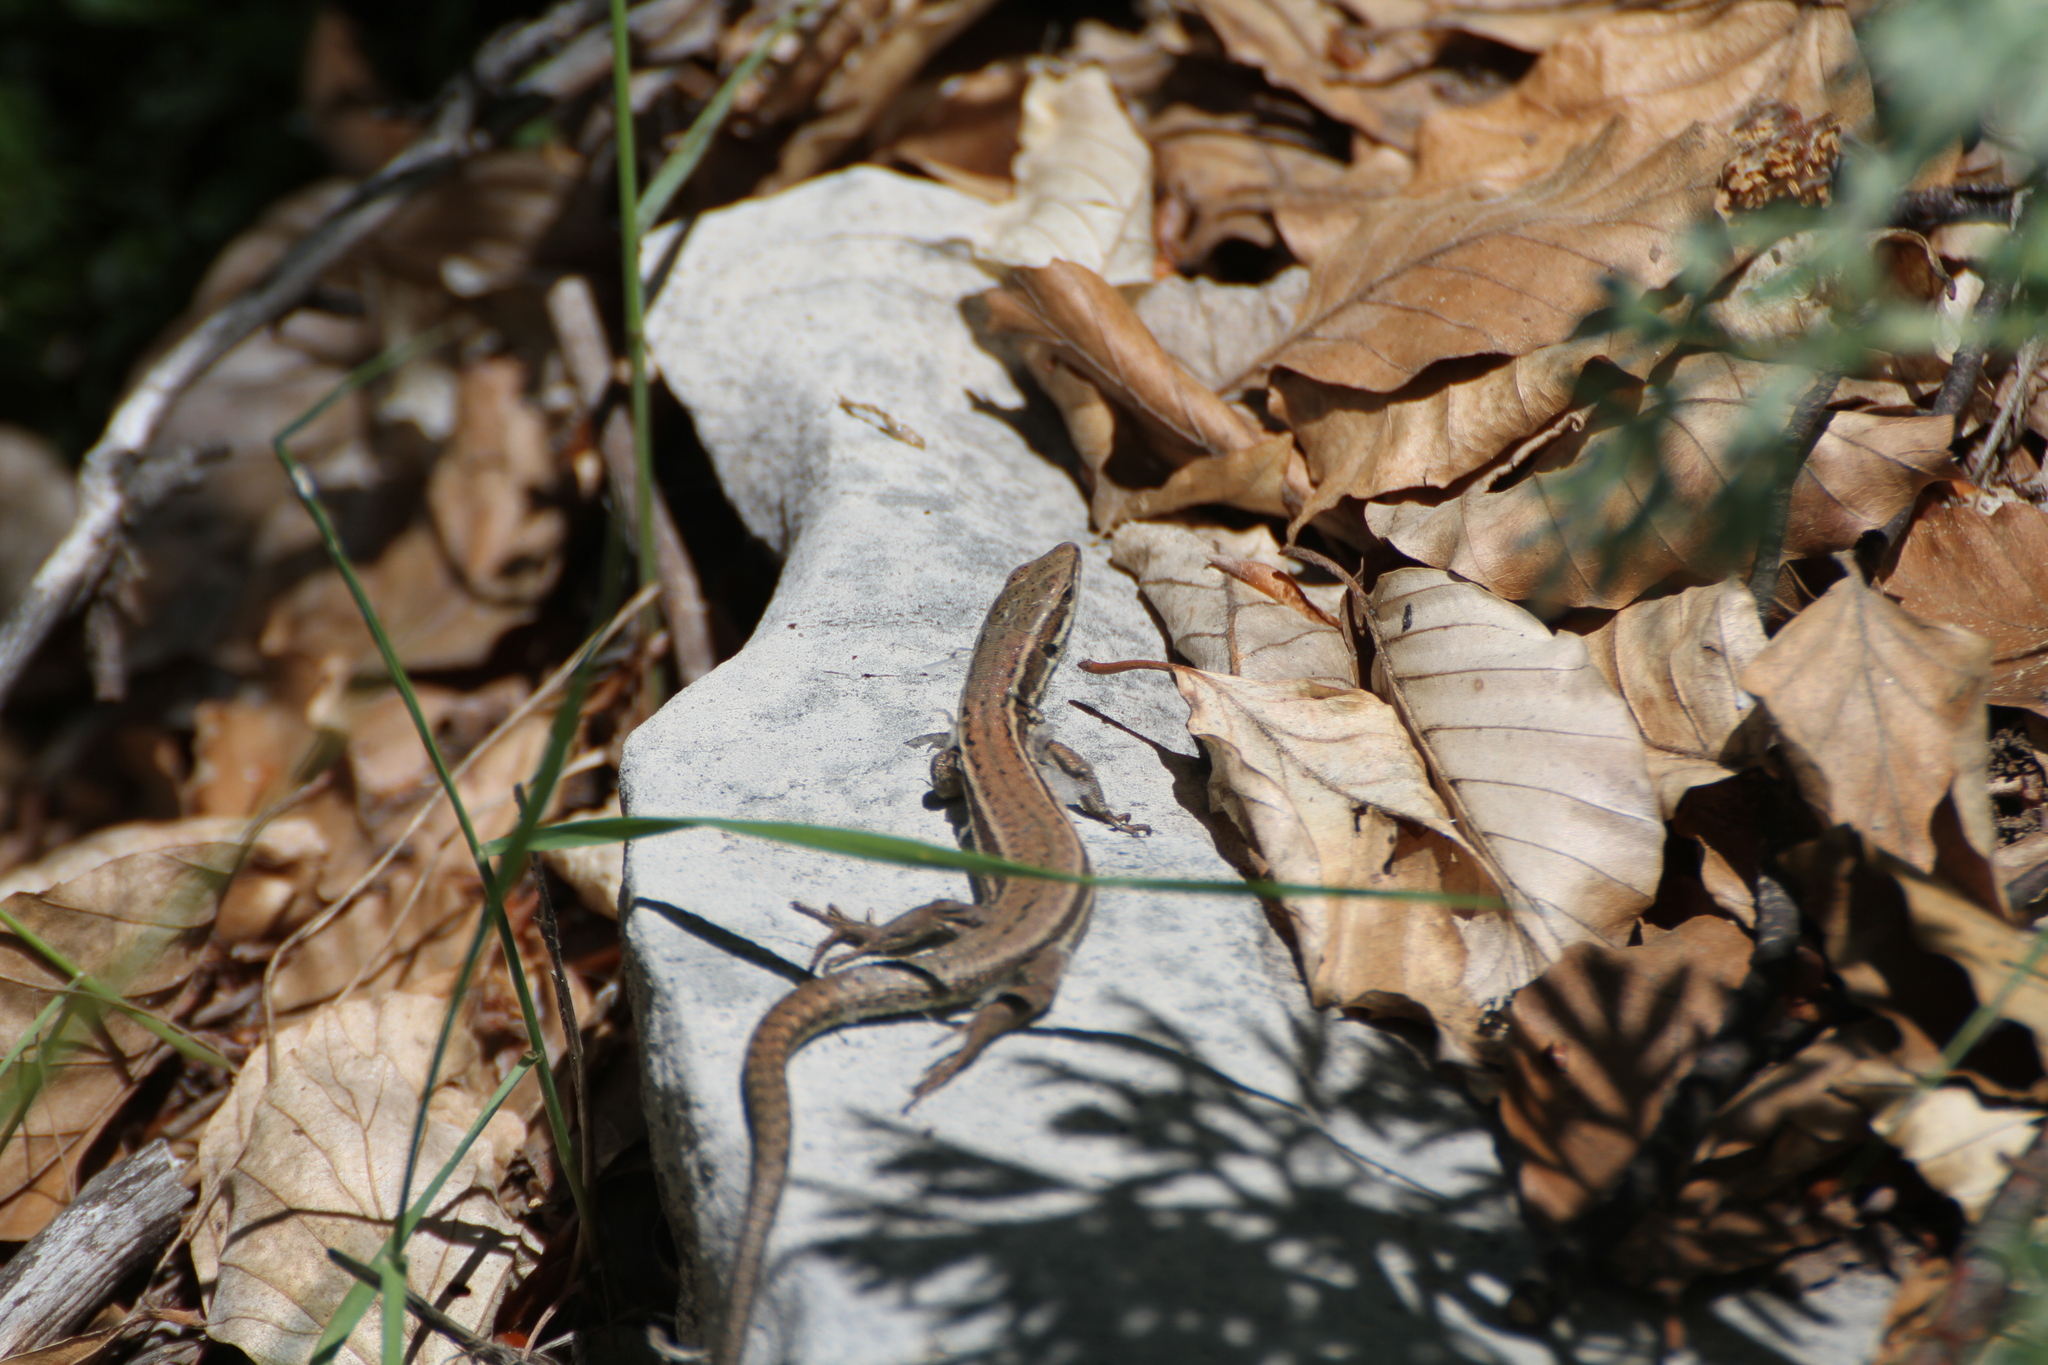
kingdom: Animalia
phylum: Chordata
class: Squamata
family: Lacertidae
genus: Podarcis
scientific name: Podarcis muralis
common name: Common wall lizard
